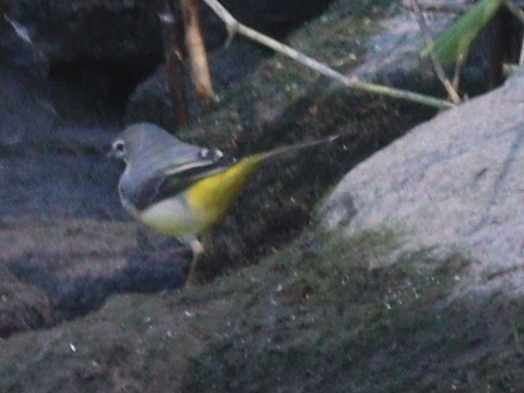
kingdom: Animalia
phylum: Chordata
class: Aves
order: Passeriformes
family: Motacillidae
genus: Motacilla
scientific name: Motacilla cinerea
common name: Grey wagtail
